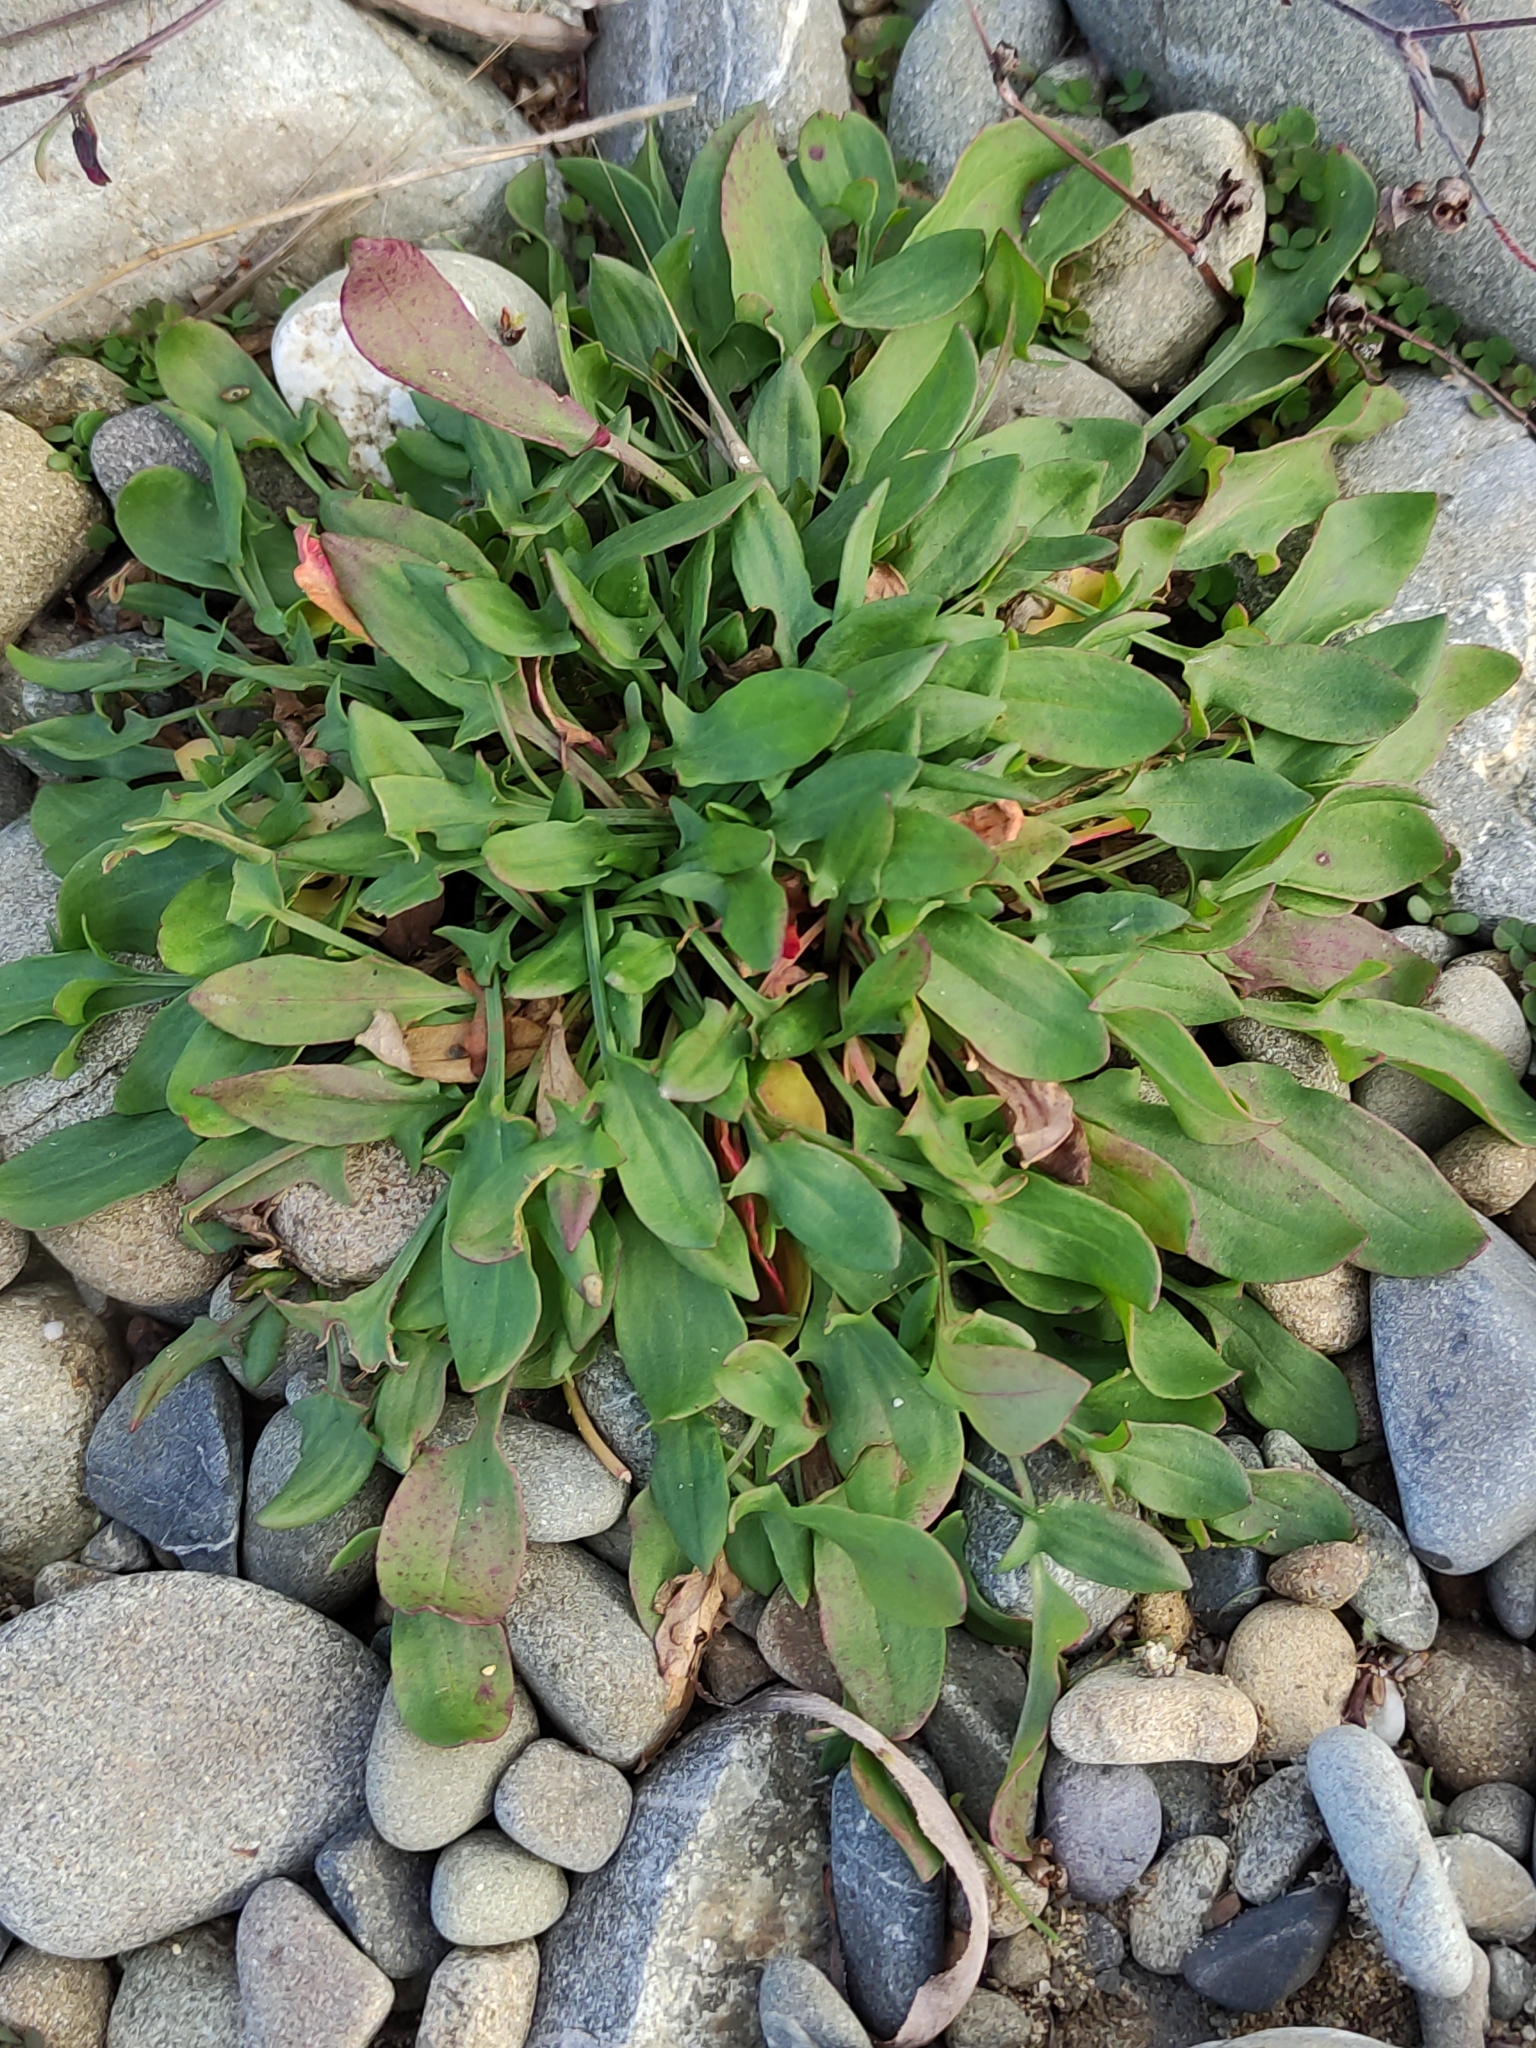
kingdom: Plantae
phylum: Tracheophyta
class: Magnoliopsida
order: Caryophyllales
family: Polygonaceae
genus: Rumex
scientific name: Rumex acetosella
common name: Common sheep sorrel
